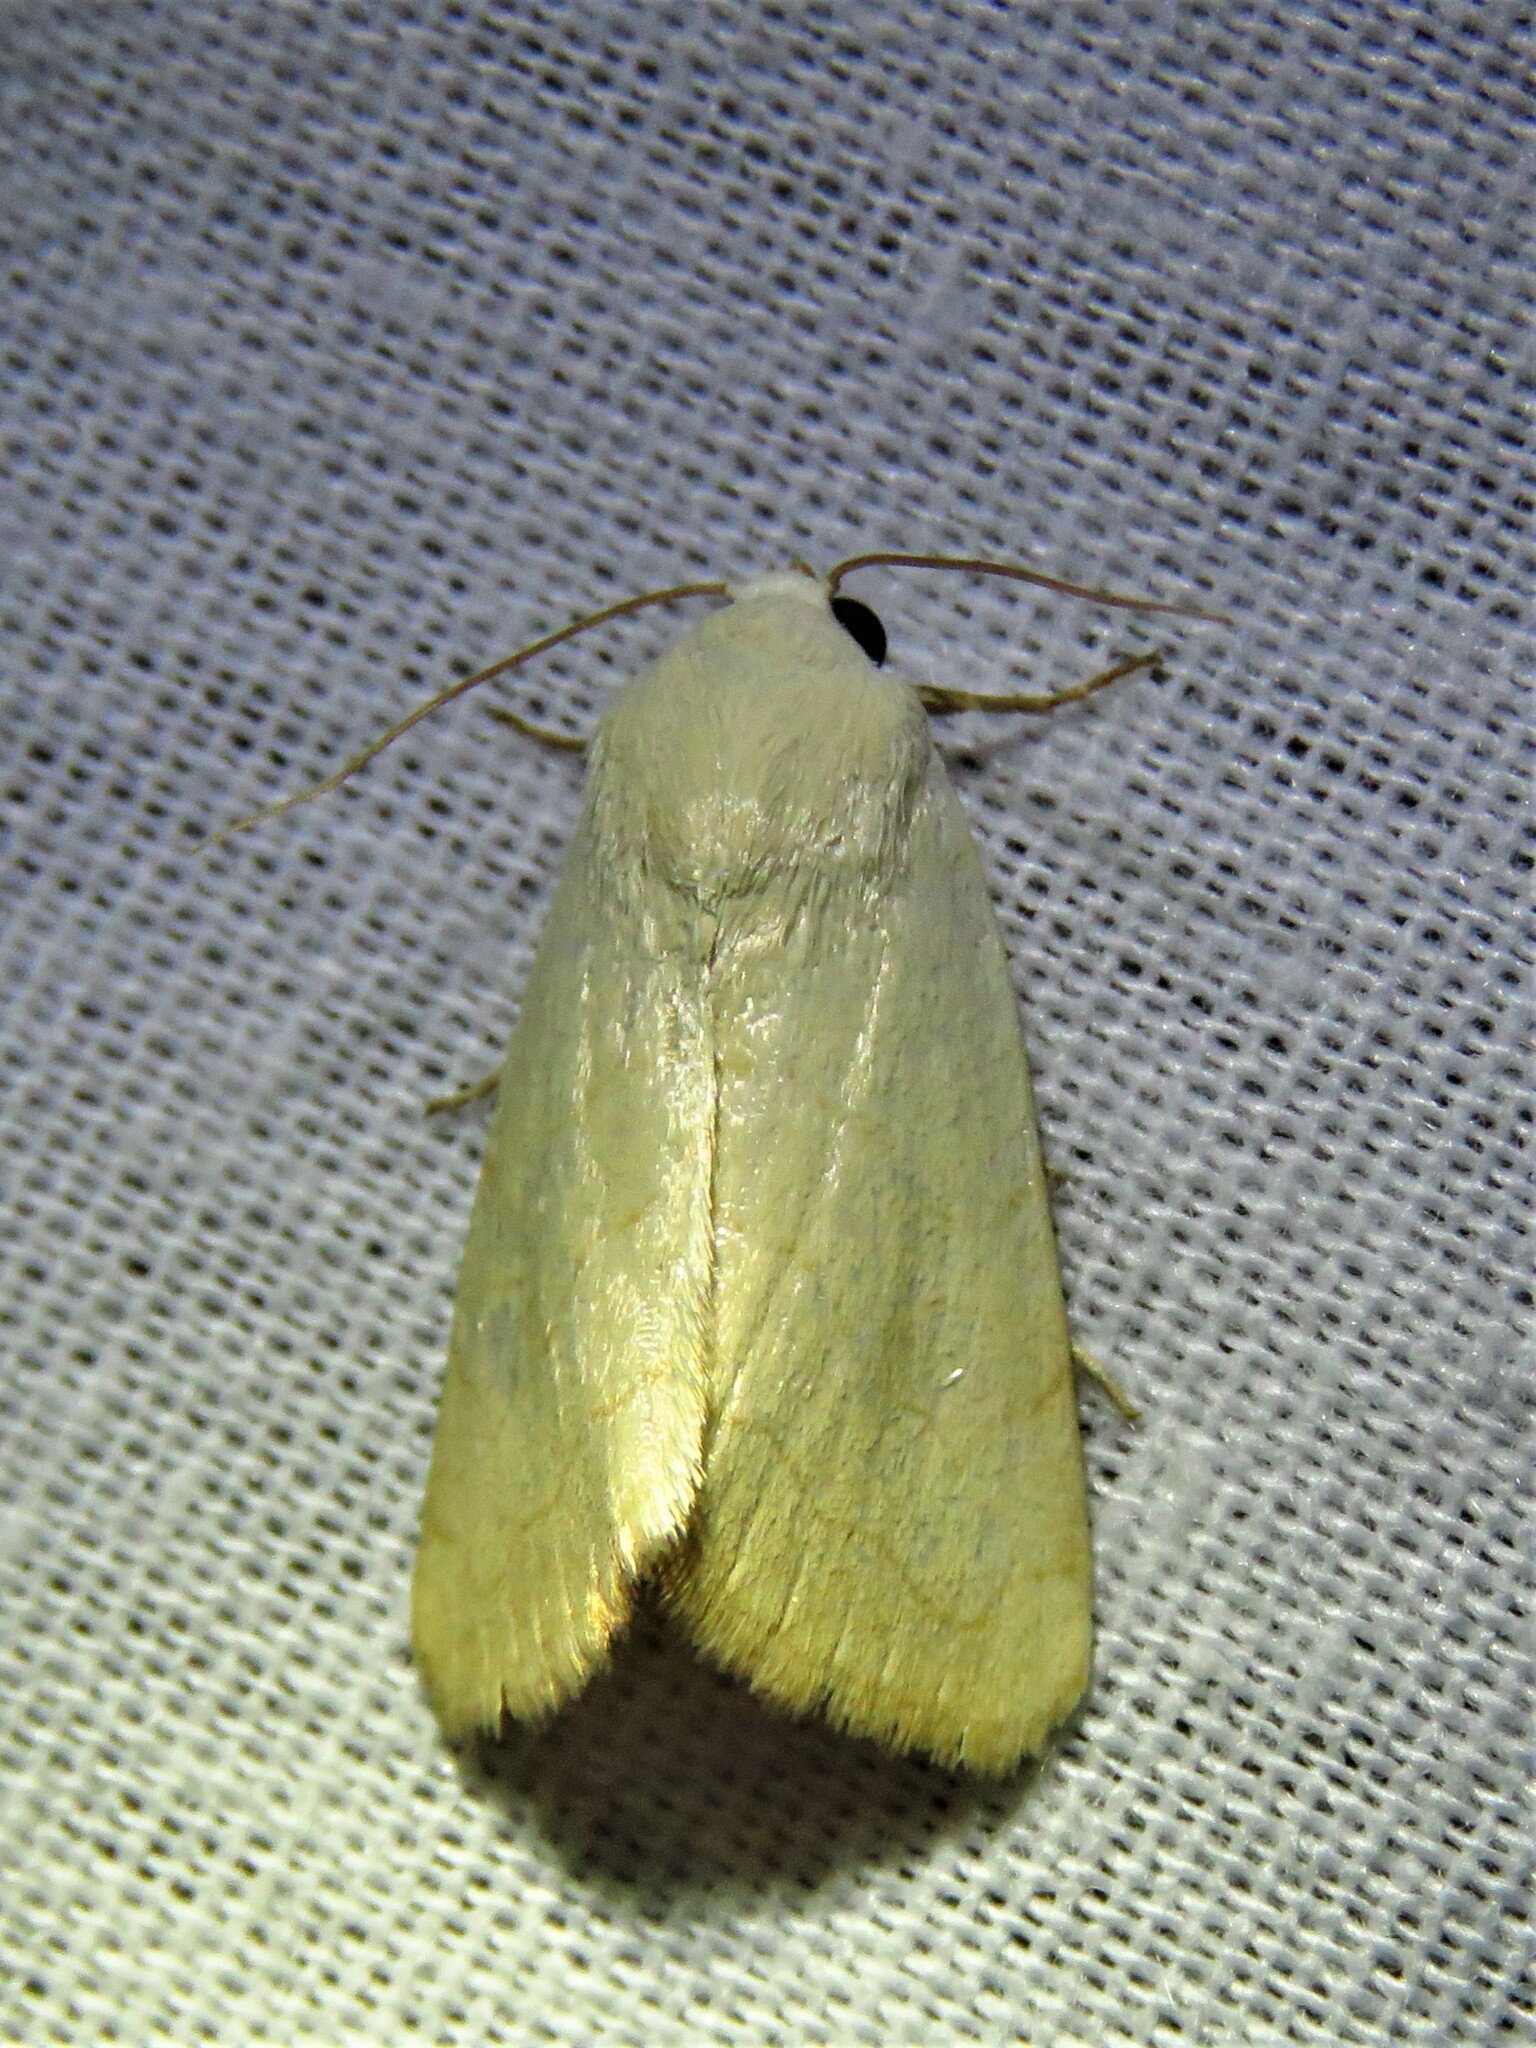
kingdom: Animalia
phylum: Arthropoda
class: Insecta
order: Lepidoptera
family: Noctuidae
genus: Bagisara
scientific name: Bagisara buxea
